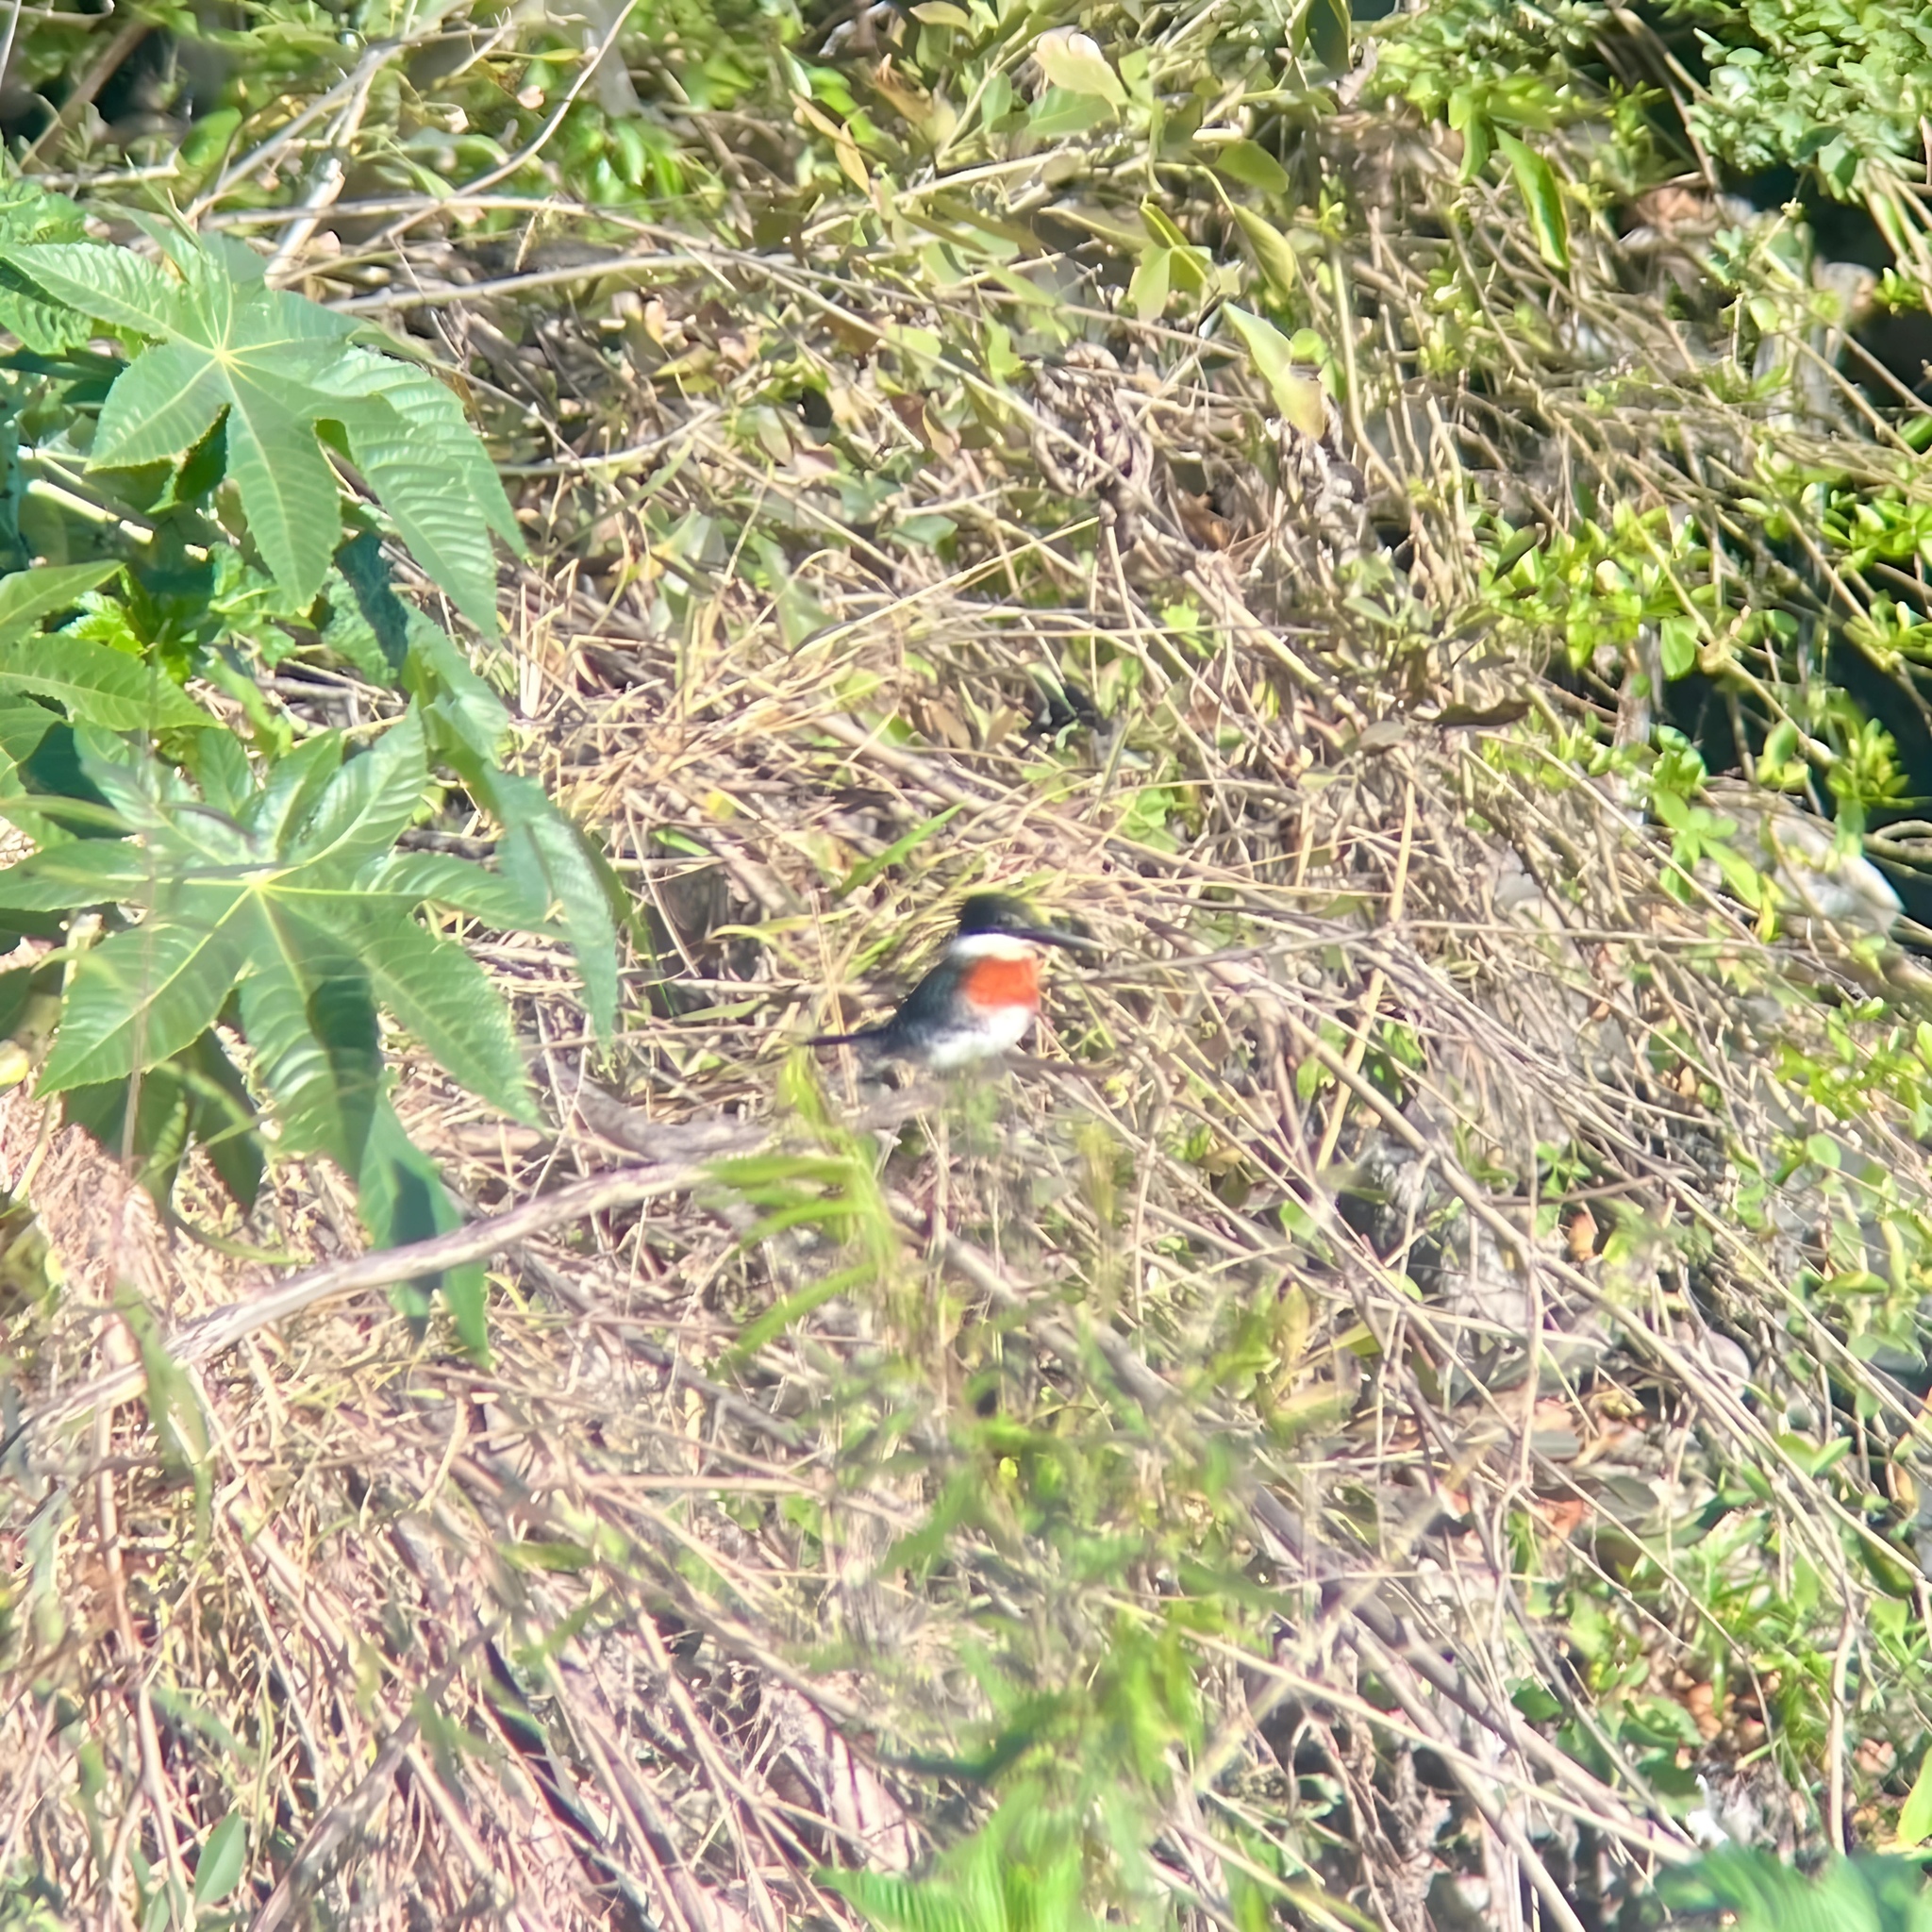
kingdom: Animalia
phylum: Chordata
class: Aves
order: Coraciiformes
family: Alcedinidae
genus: Chloroceryle
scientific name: Chloroceryle americana
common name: Green kingfisher
